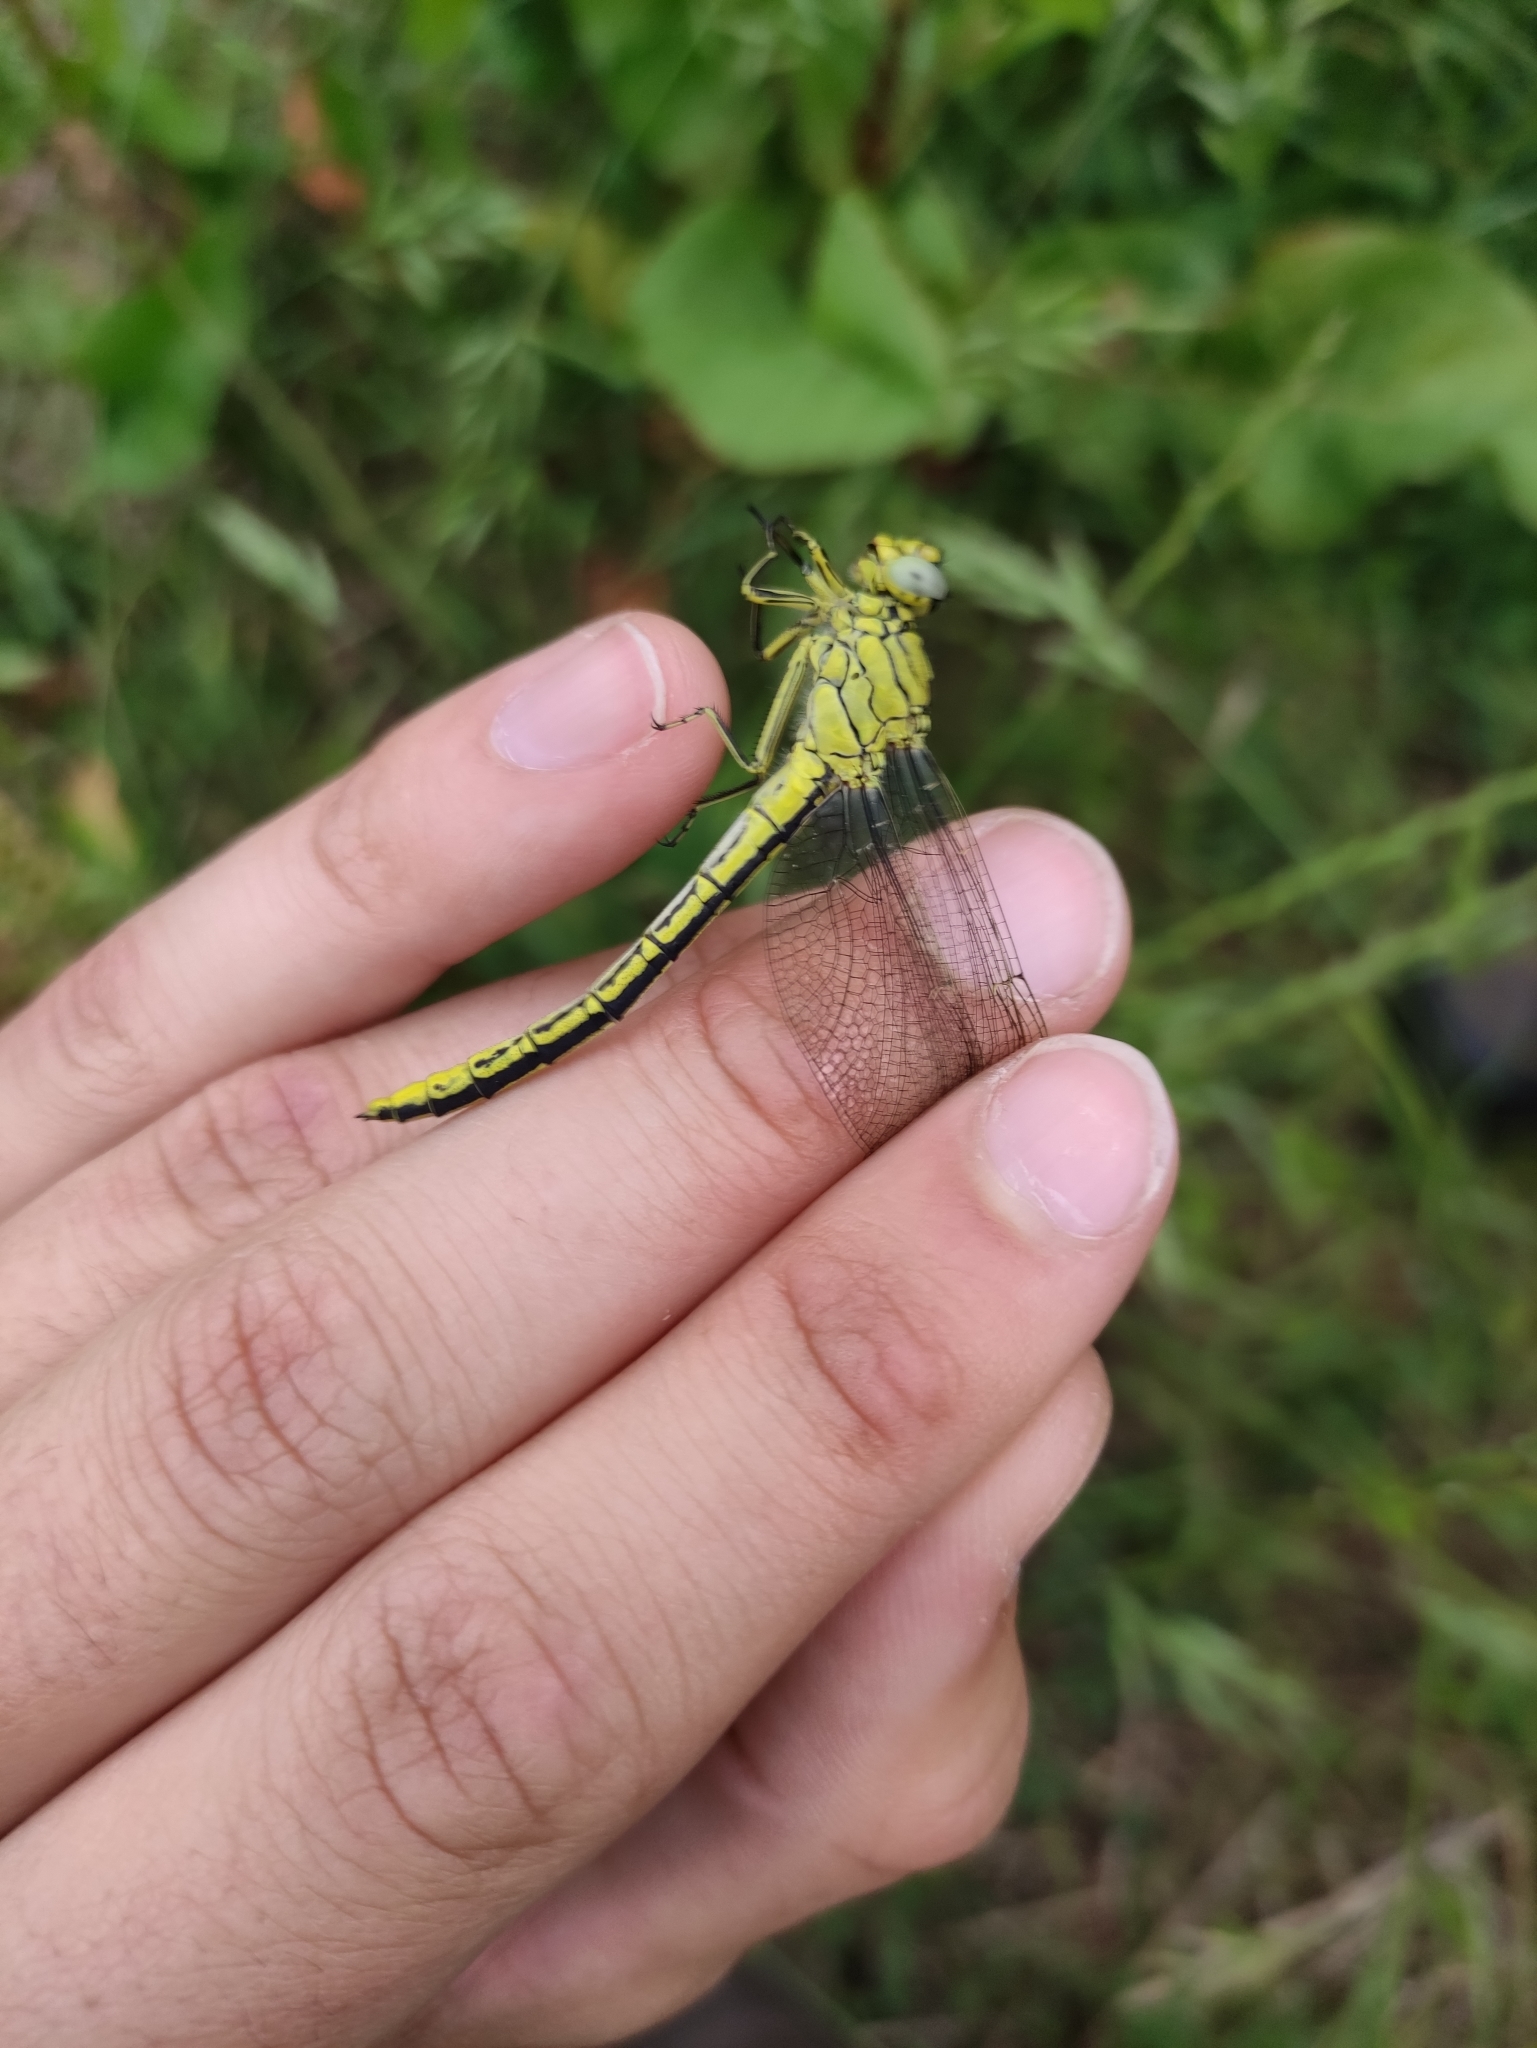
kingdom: Animalia
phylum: Arthropoda
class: Insecta
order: Odonata
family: Gomphidae
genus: Gomphus
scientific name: Gomphus pulchellus
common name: Western clubtail
